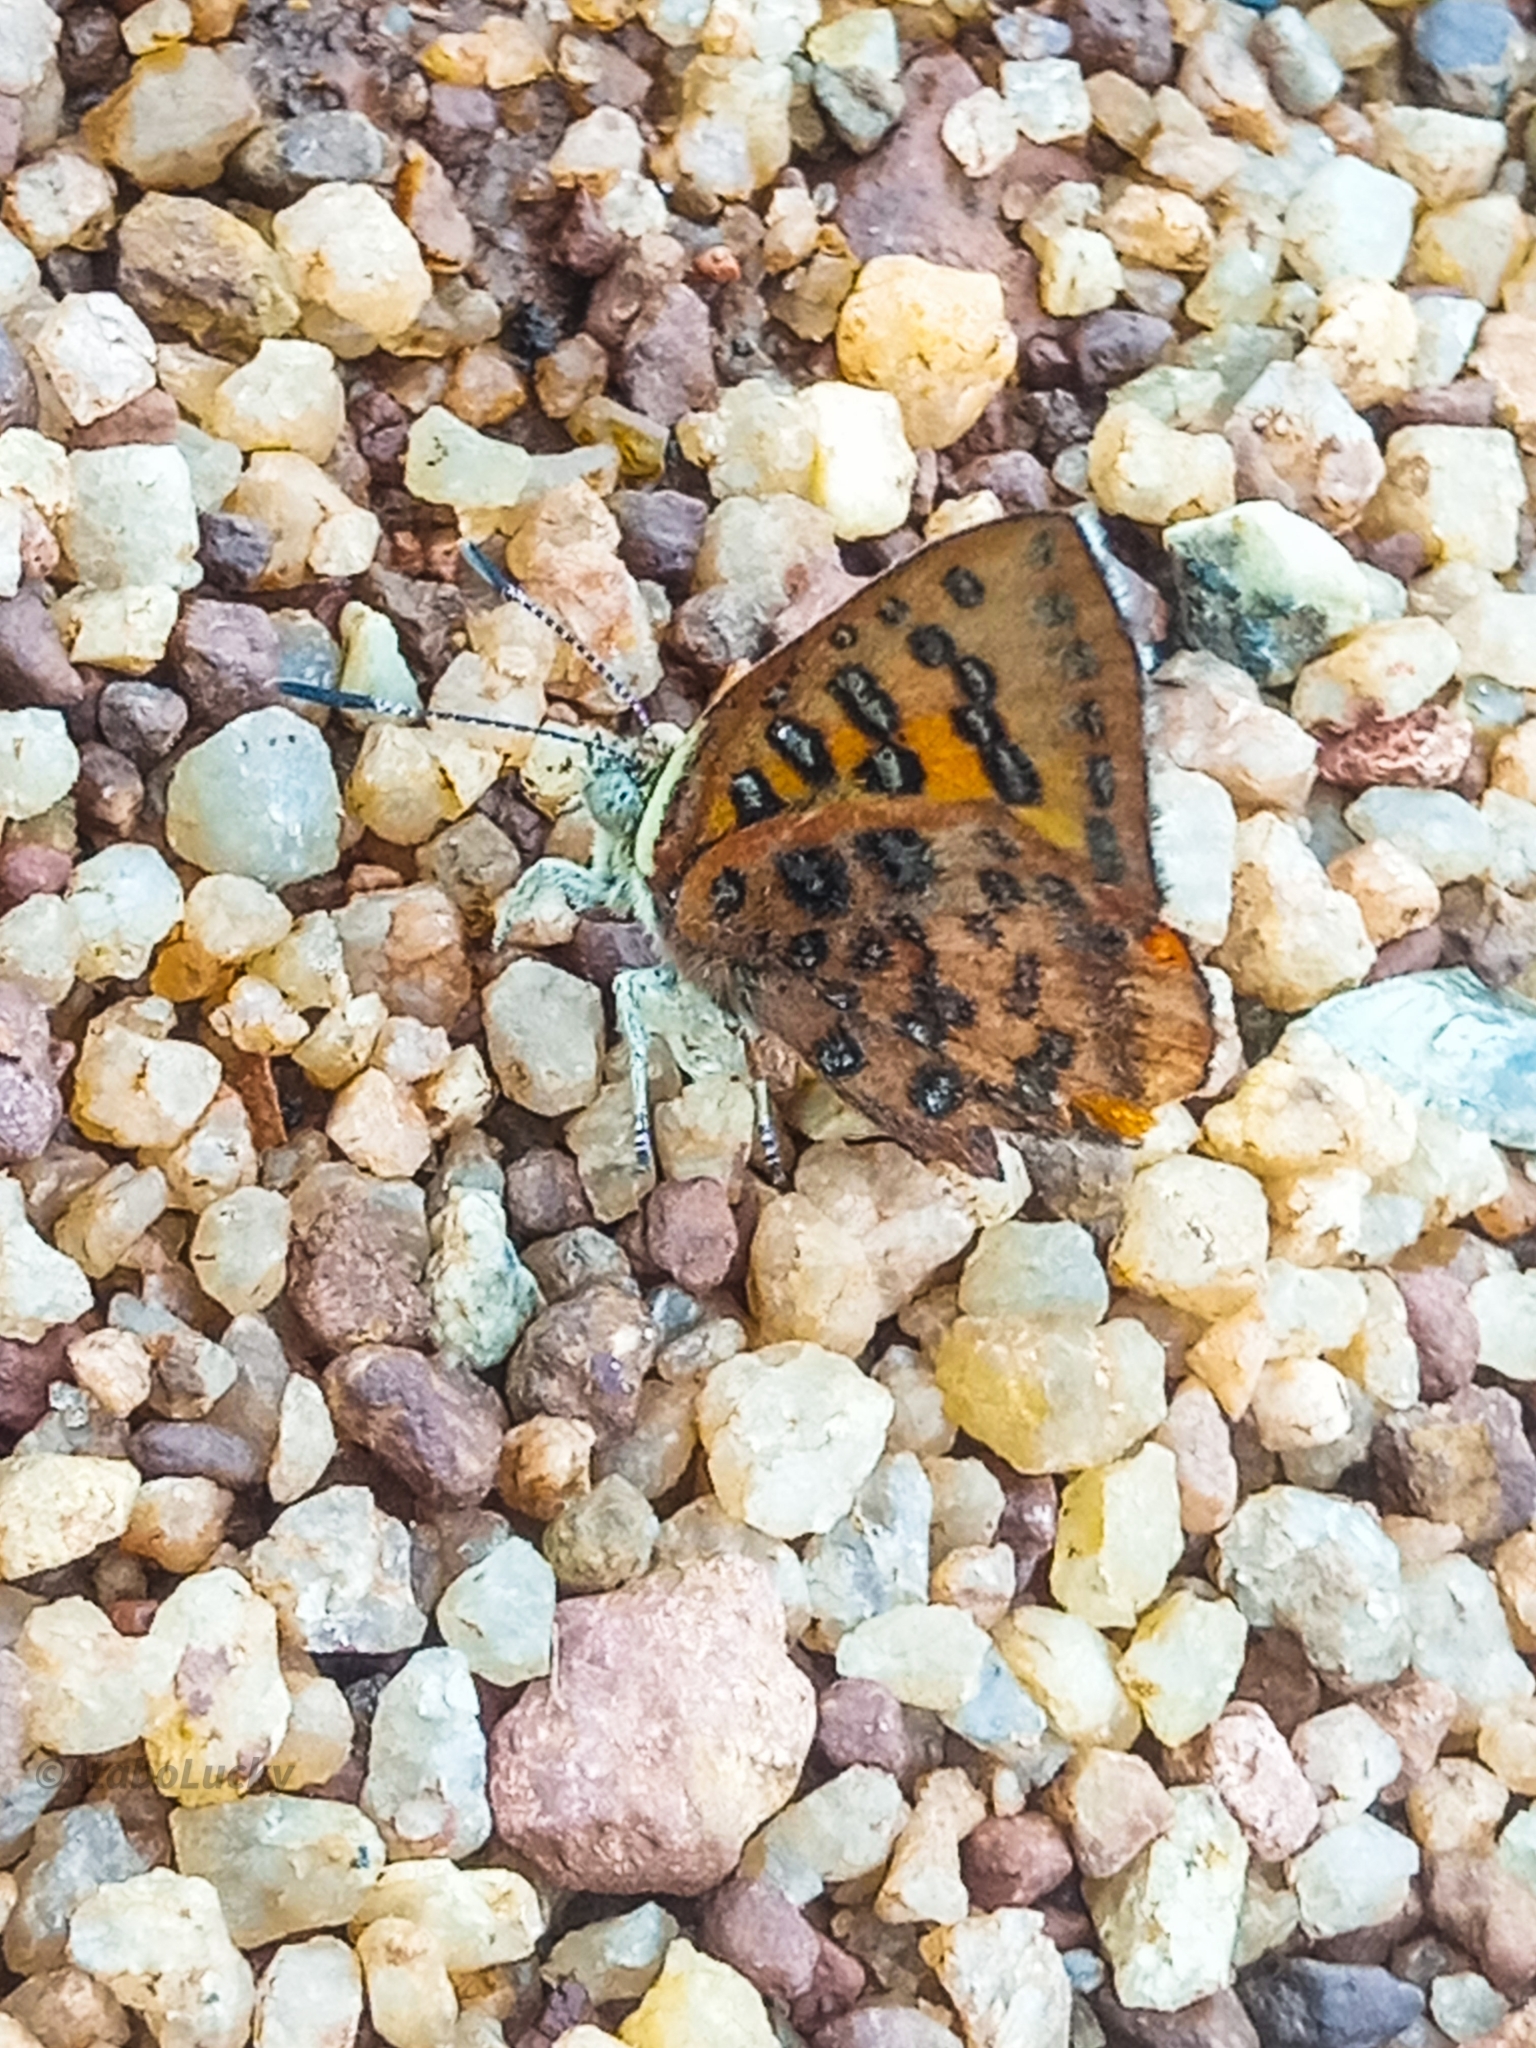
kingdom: Animalia
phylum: Arthropoda
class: Insecta
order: Lepidoptera
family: Lycaenidae
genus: Axiocerses
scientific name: Axiocerses harpax
